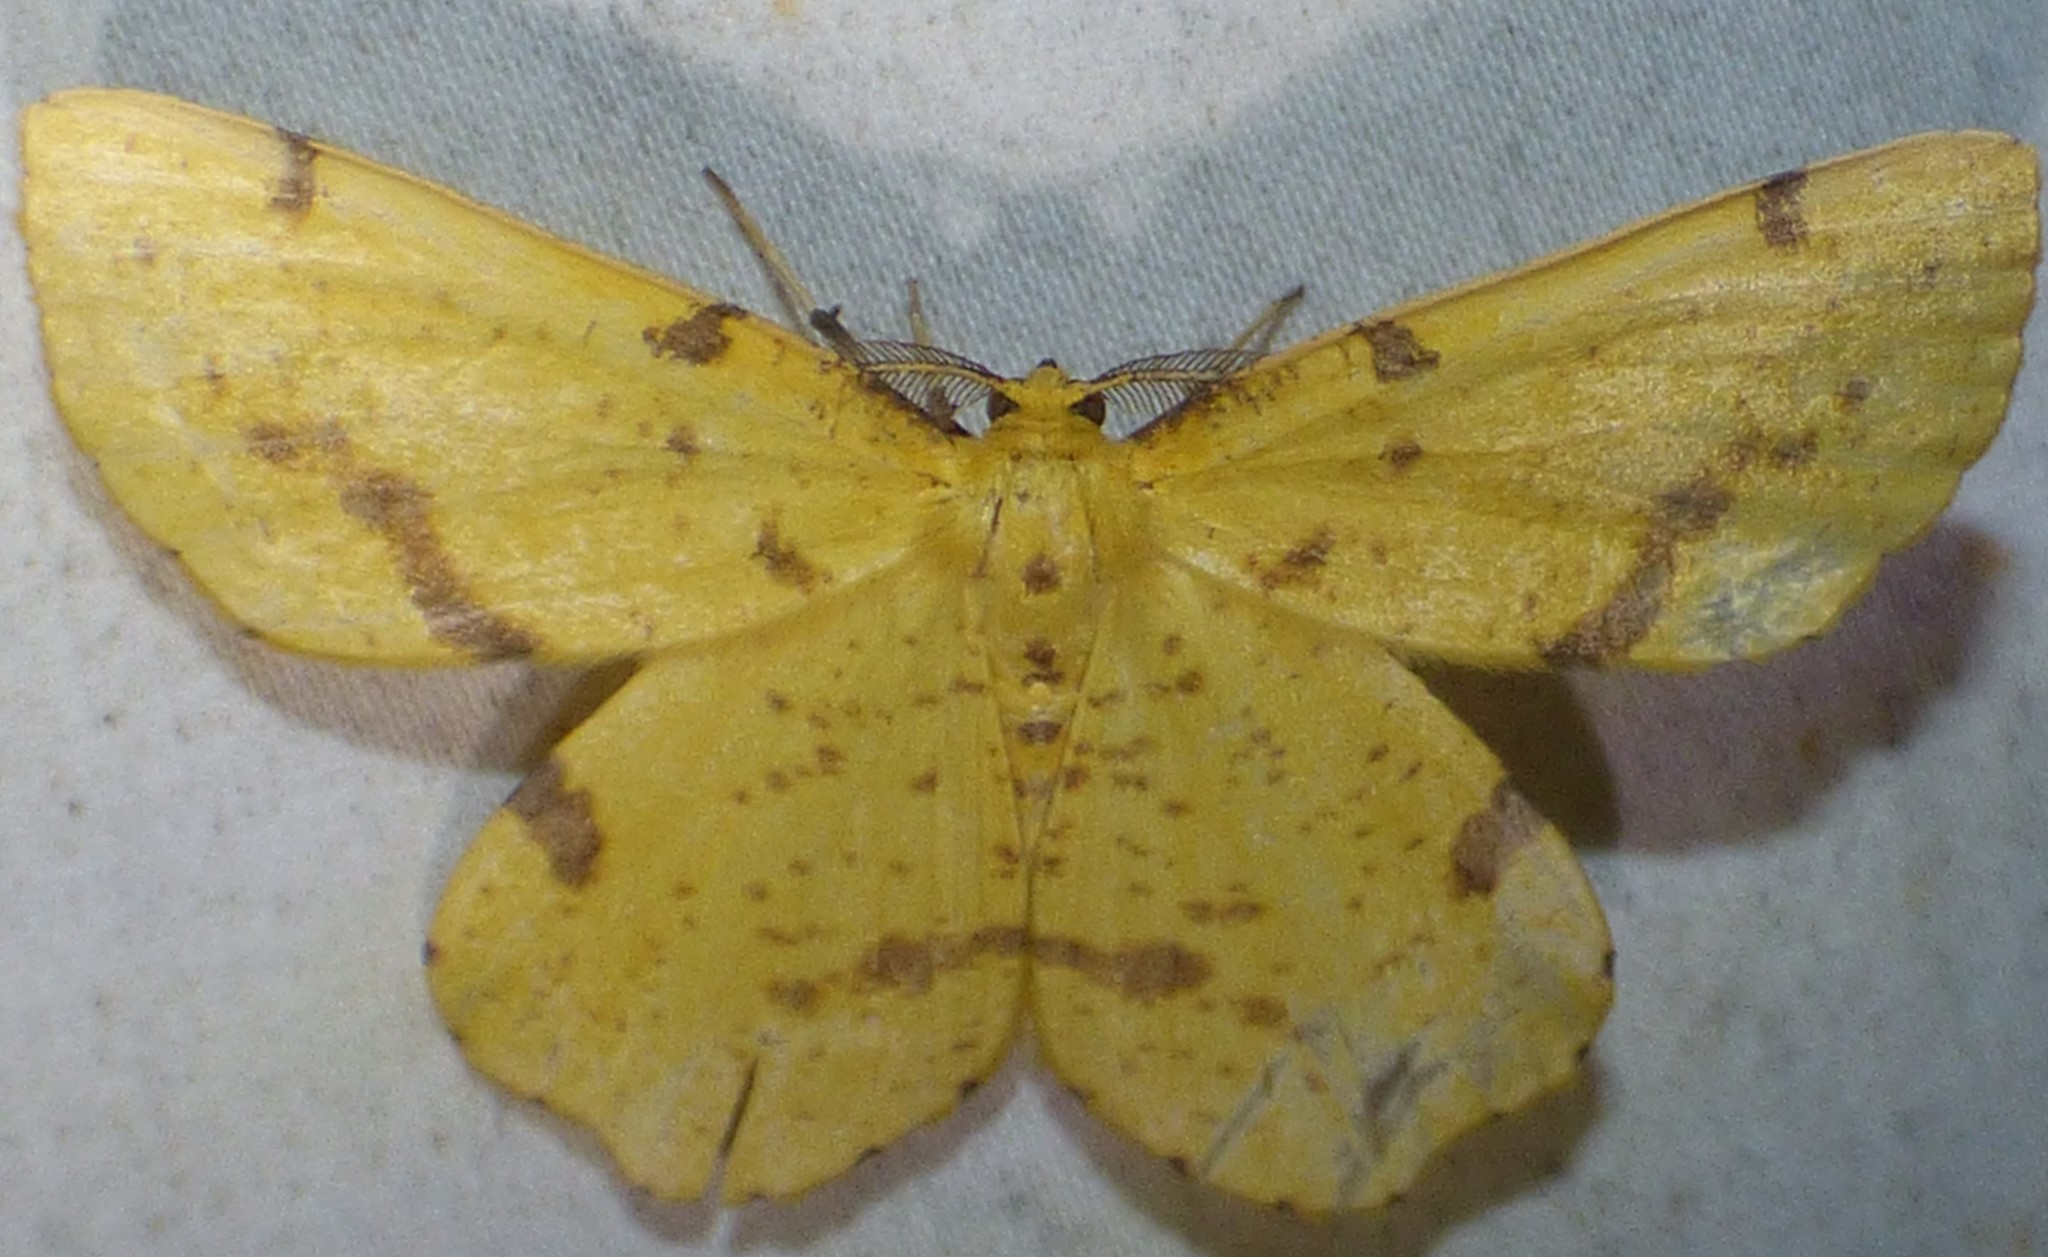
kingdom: Animalia
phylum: Arthropoda
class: Insecta
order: Lepidoptera
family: Geometridae
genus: Xanthotype
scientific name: Xanthotype
